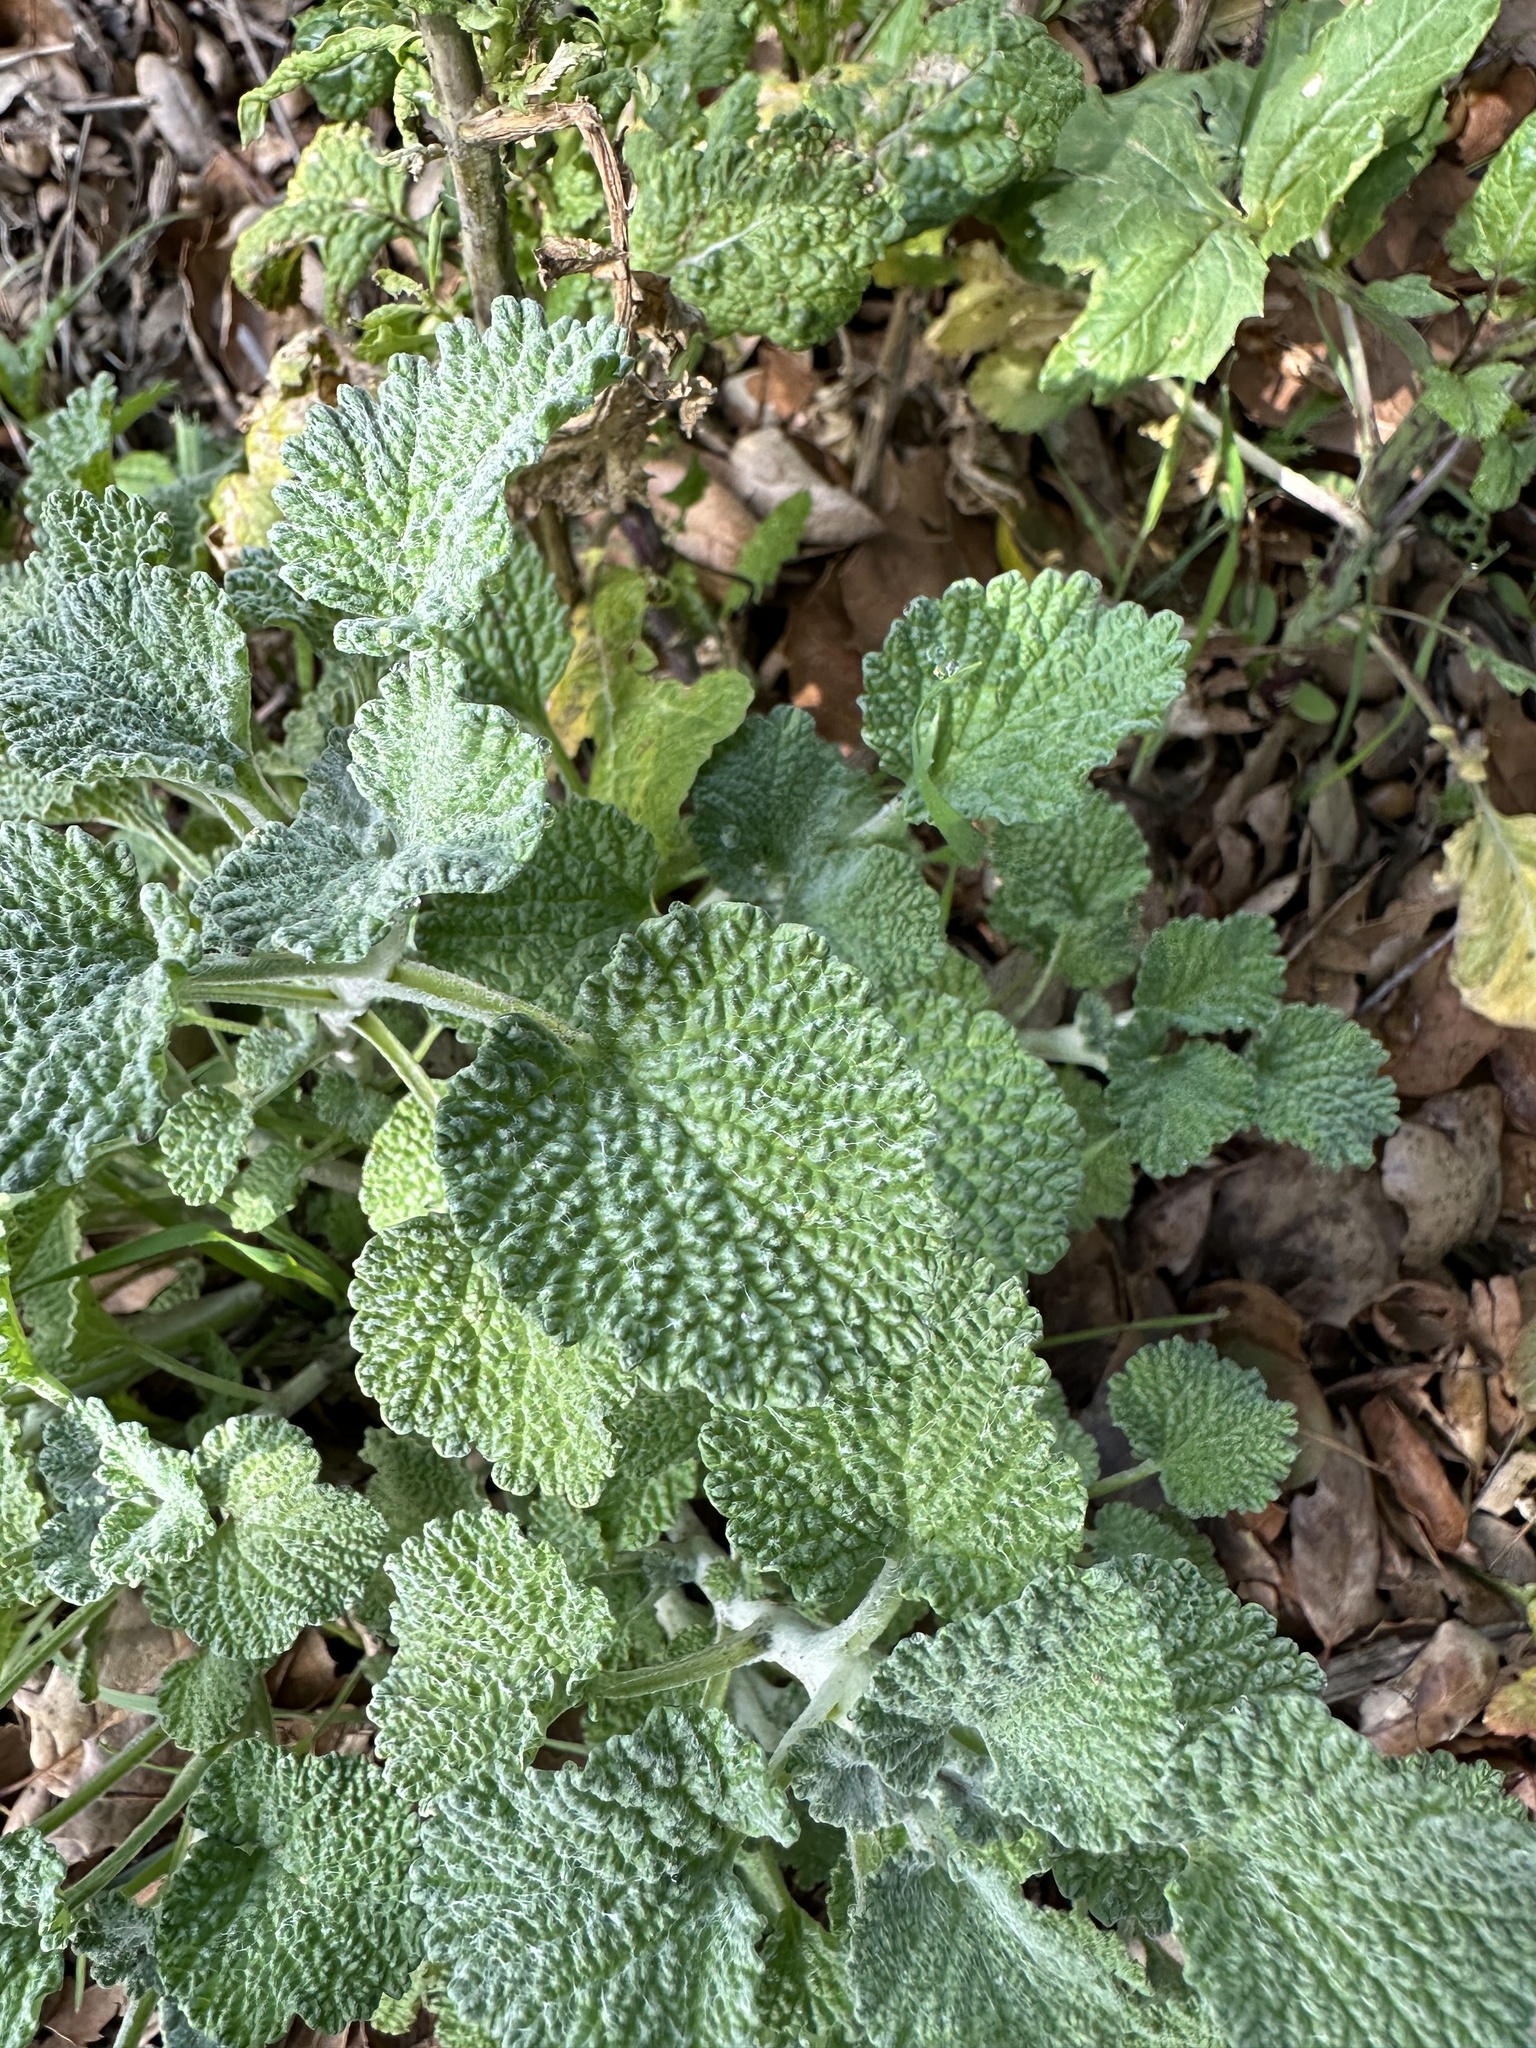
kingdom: Plantae
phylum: Tracheophyta
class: Magnoliopsida
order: Lamiales
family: Lamiaceae
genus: Marrubium
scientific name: Marrubium vulgare
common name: Horehound
